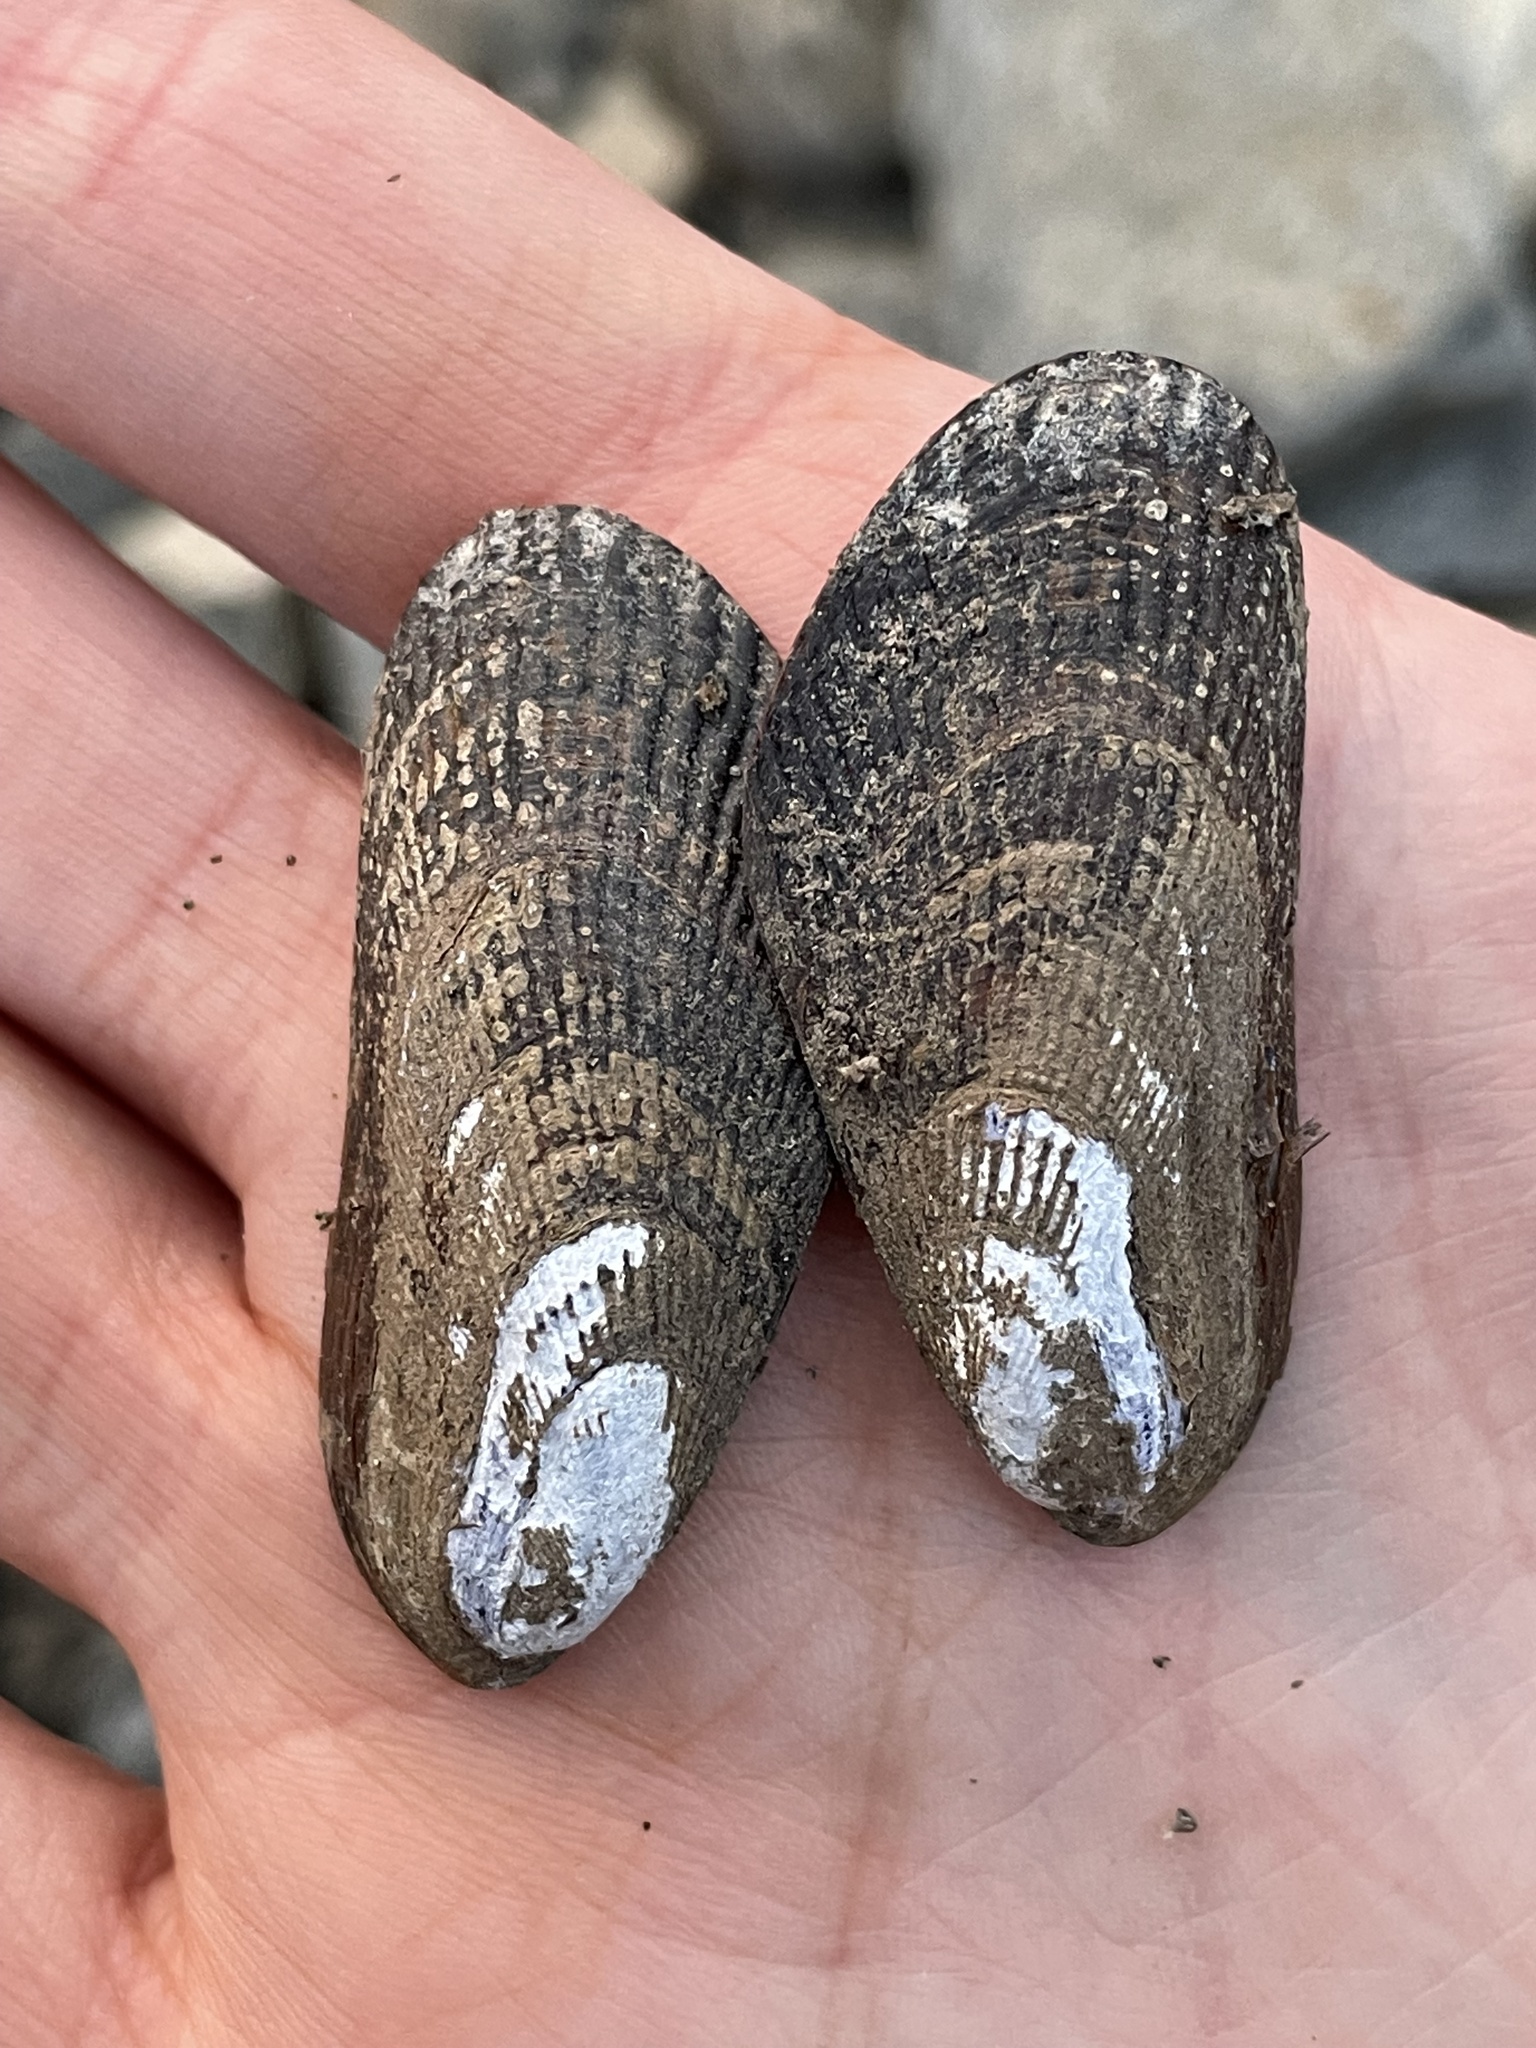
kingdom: Animalia
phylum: Mollusca
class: Bivalvia
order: Mytilida
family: Mytilidae
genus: Geukensia
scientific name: Geukensia demissa
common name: Ribbed mussel
